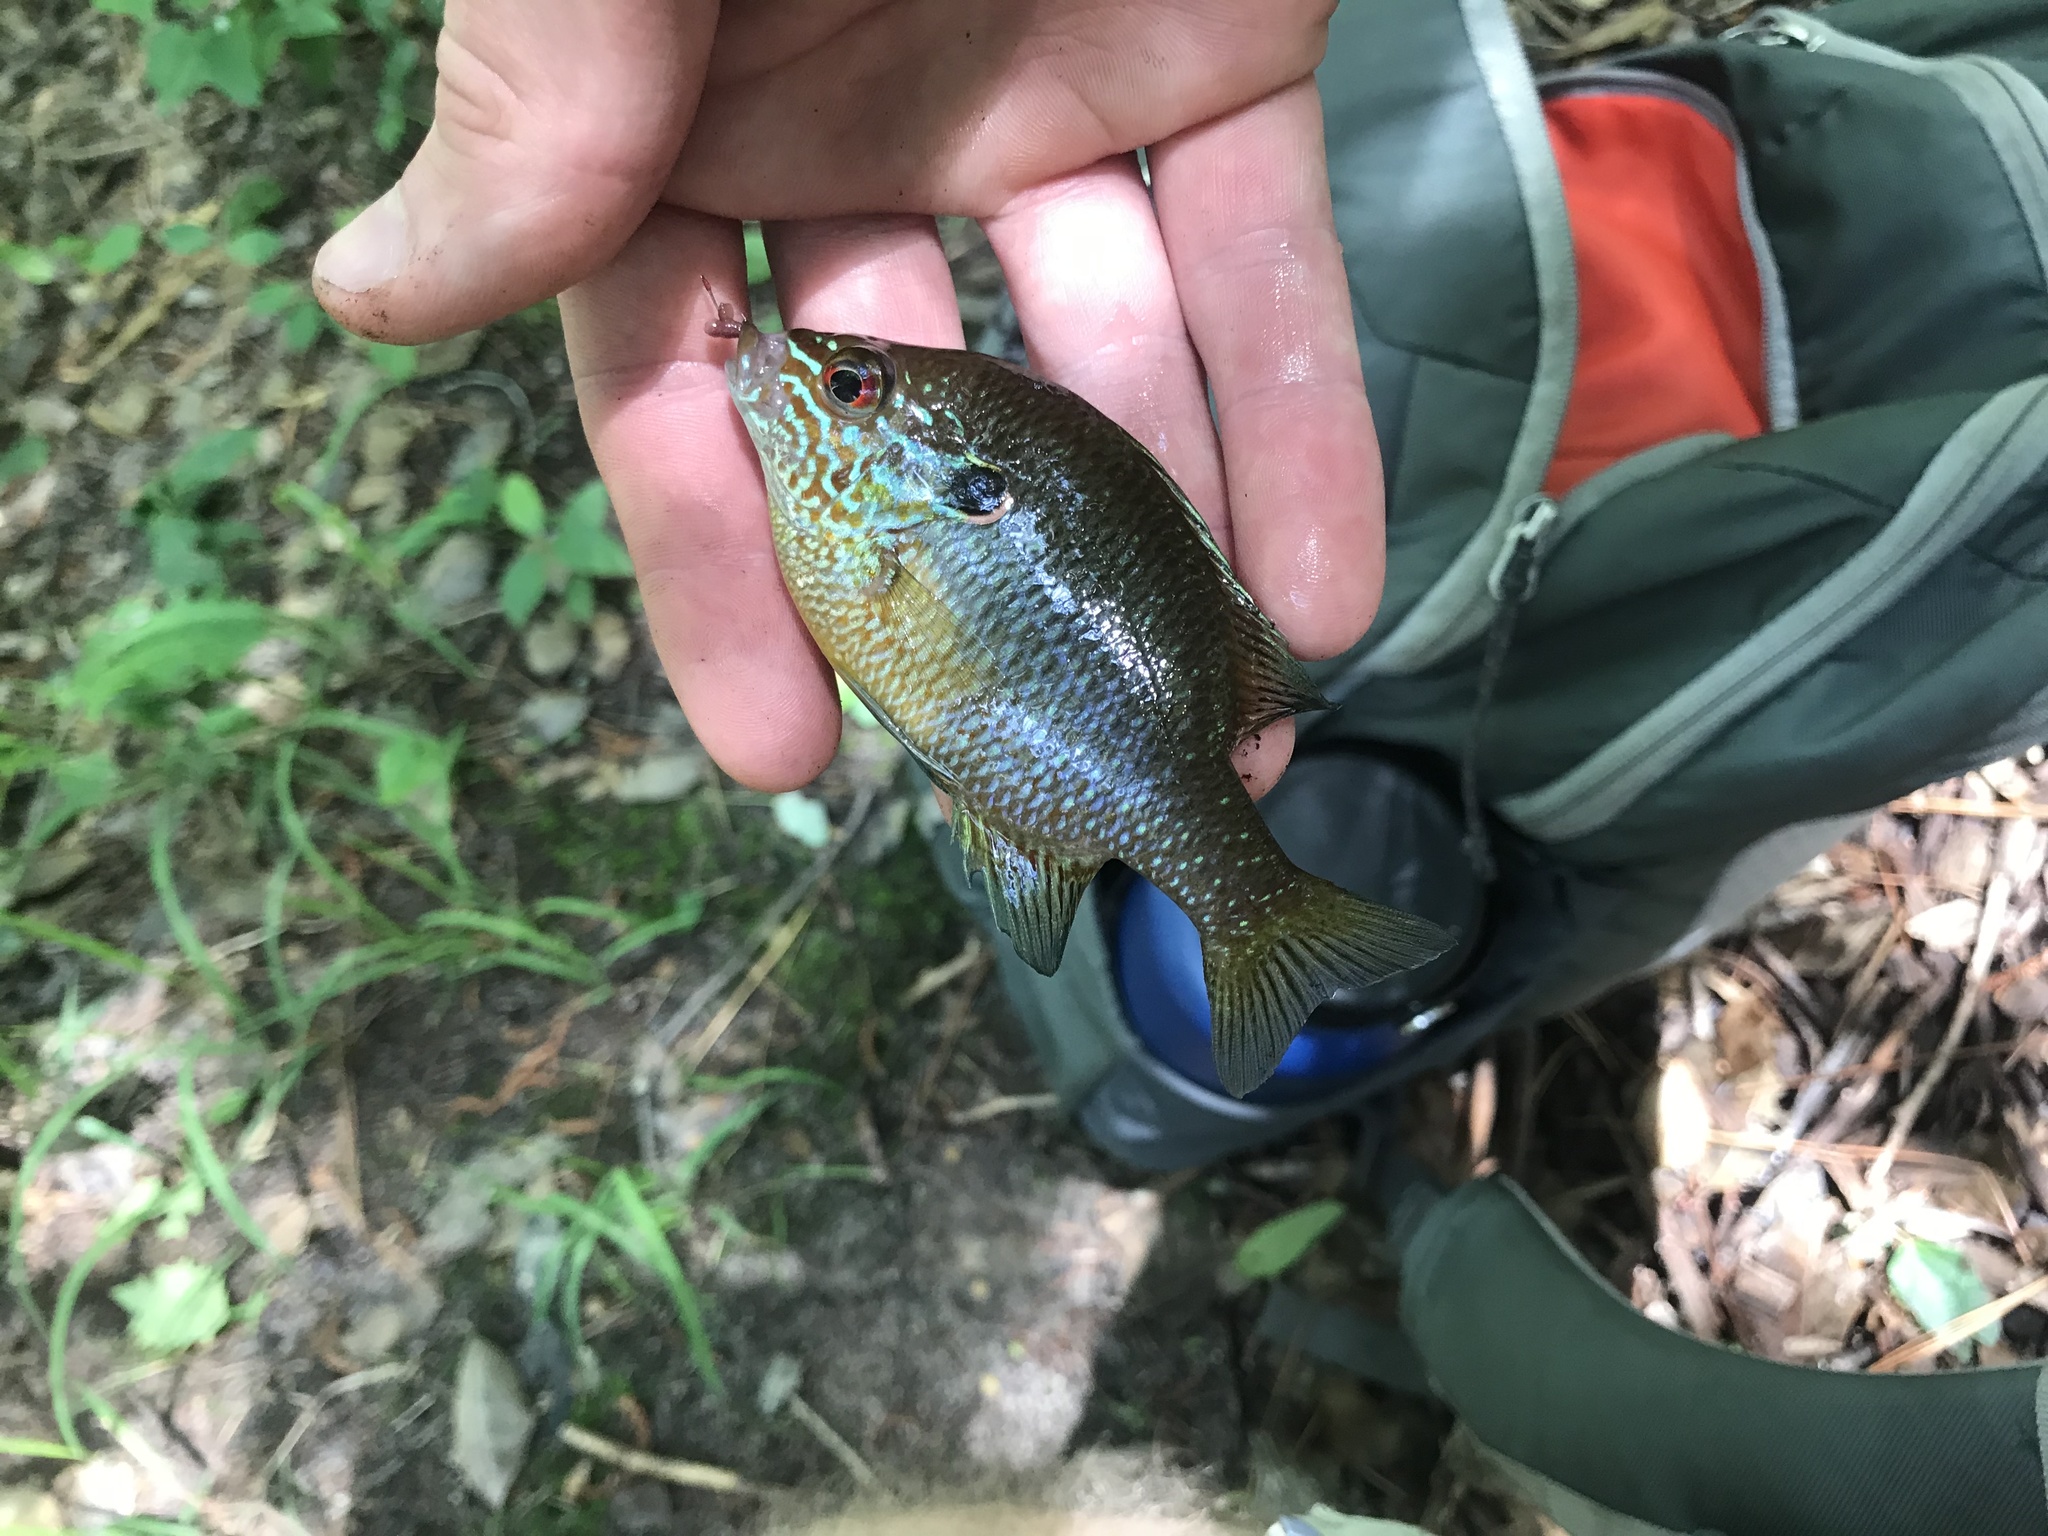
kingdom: Animalia
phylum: Chordata
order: Perciformes
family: Centrarchidae
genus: Lepomis
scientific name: Lepomis marginatus
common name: Dollar sunfish
